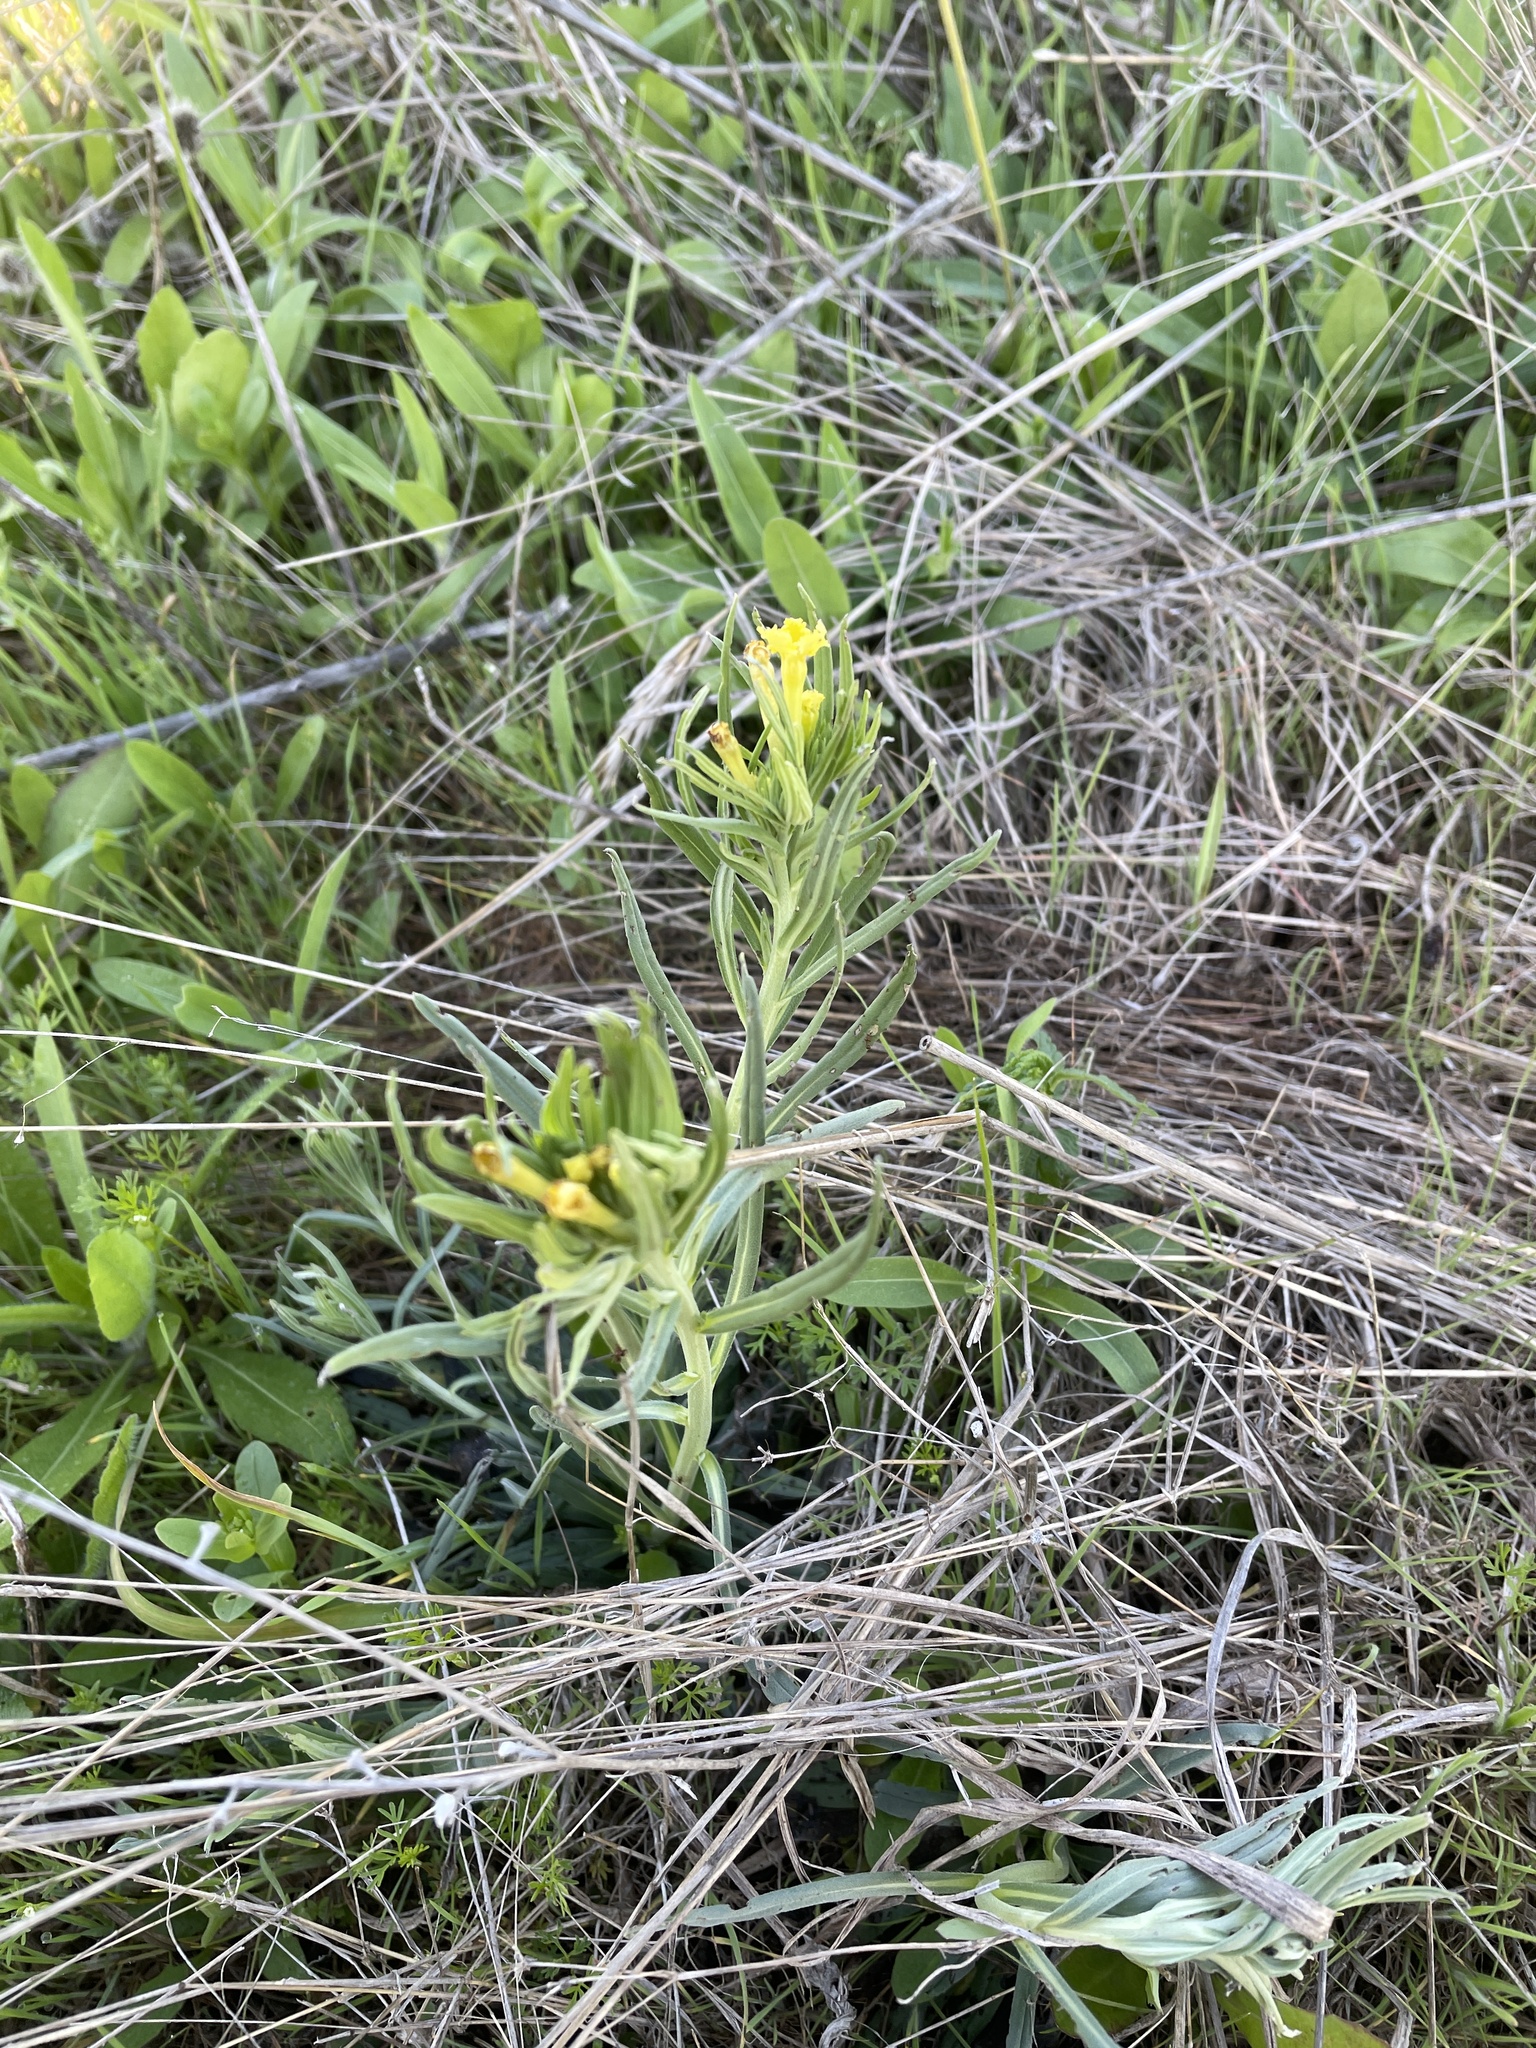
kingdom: Plantae
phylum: Tracheophyta
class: Magnoliopsida
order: Boraginales
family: Boraginaceae
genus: Lithospermum
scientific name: Lithospermum incisum
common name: Fringed gromwell
